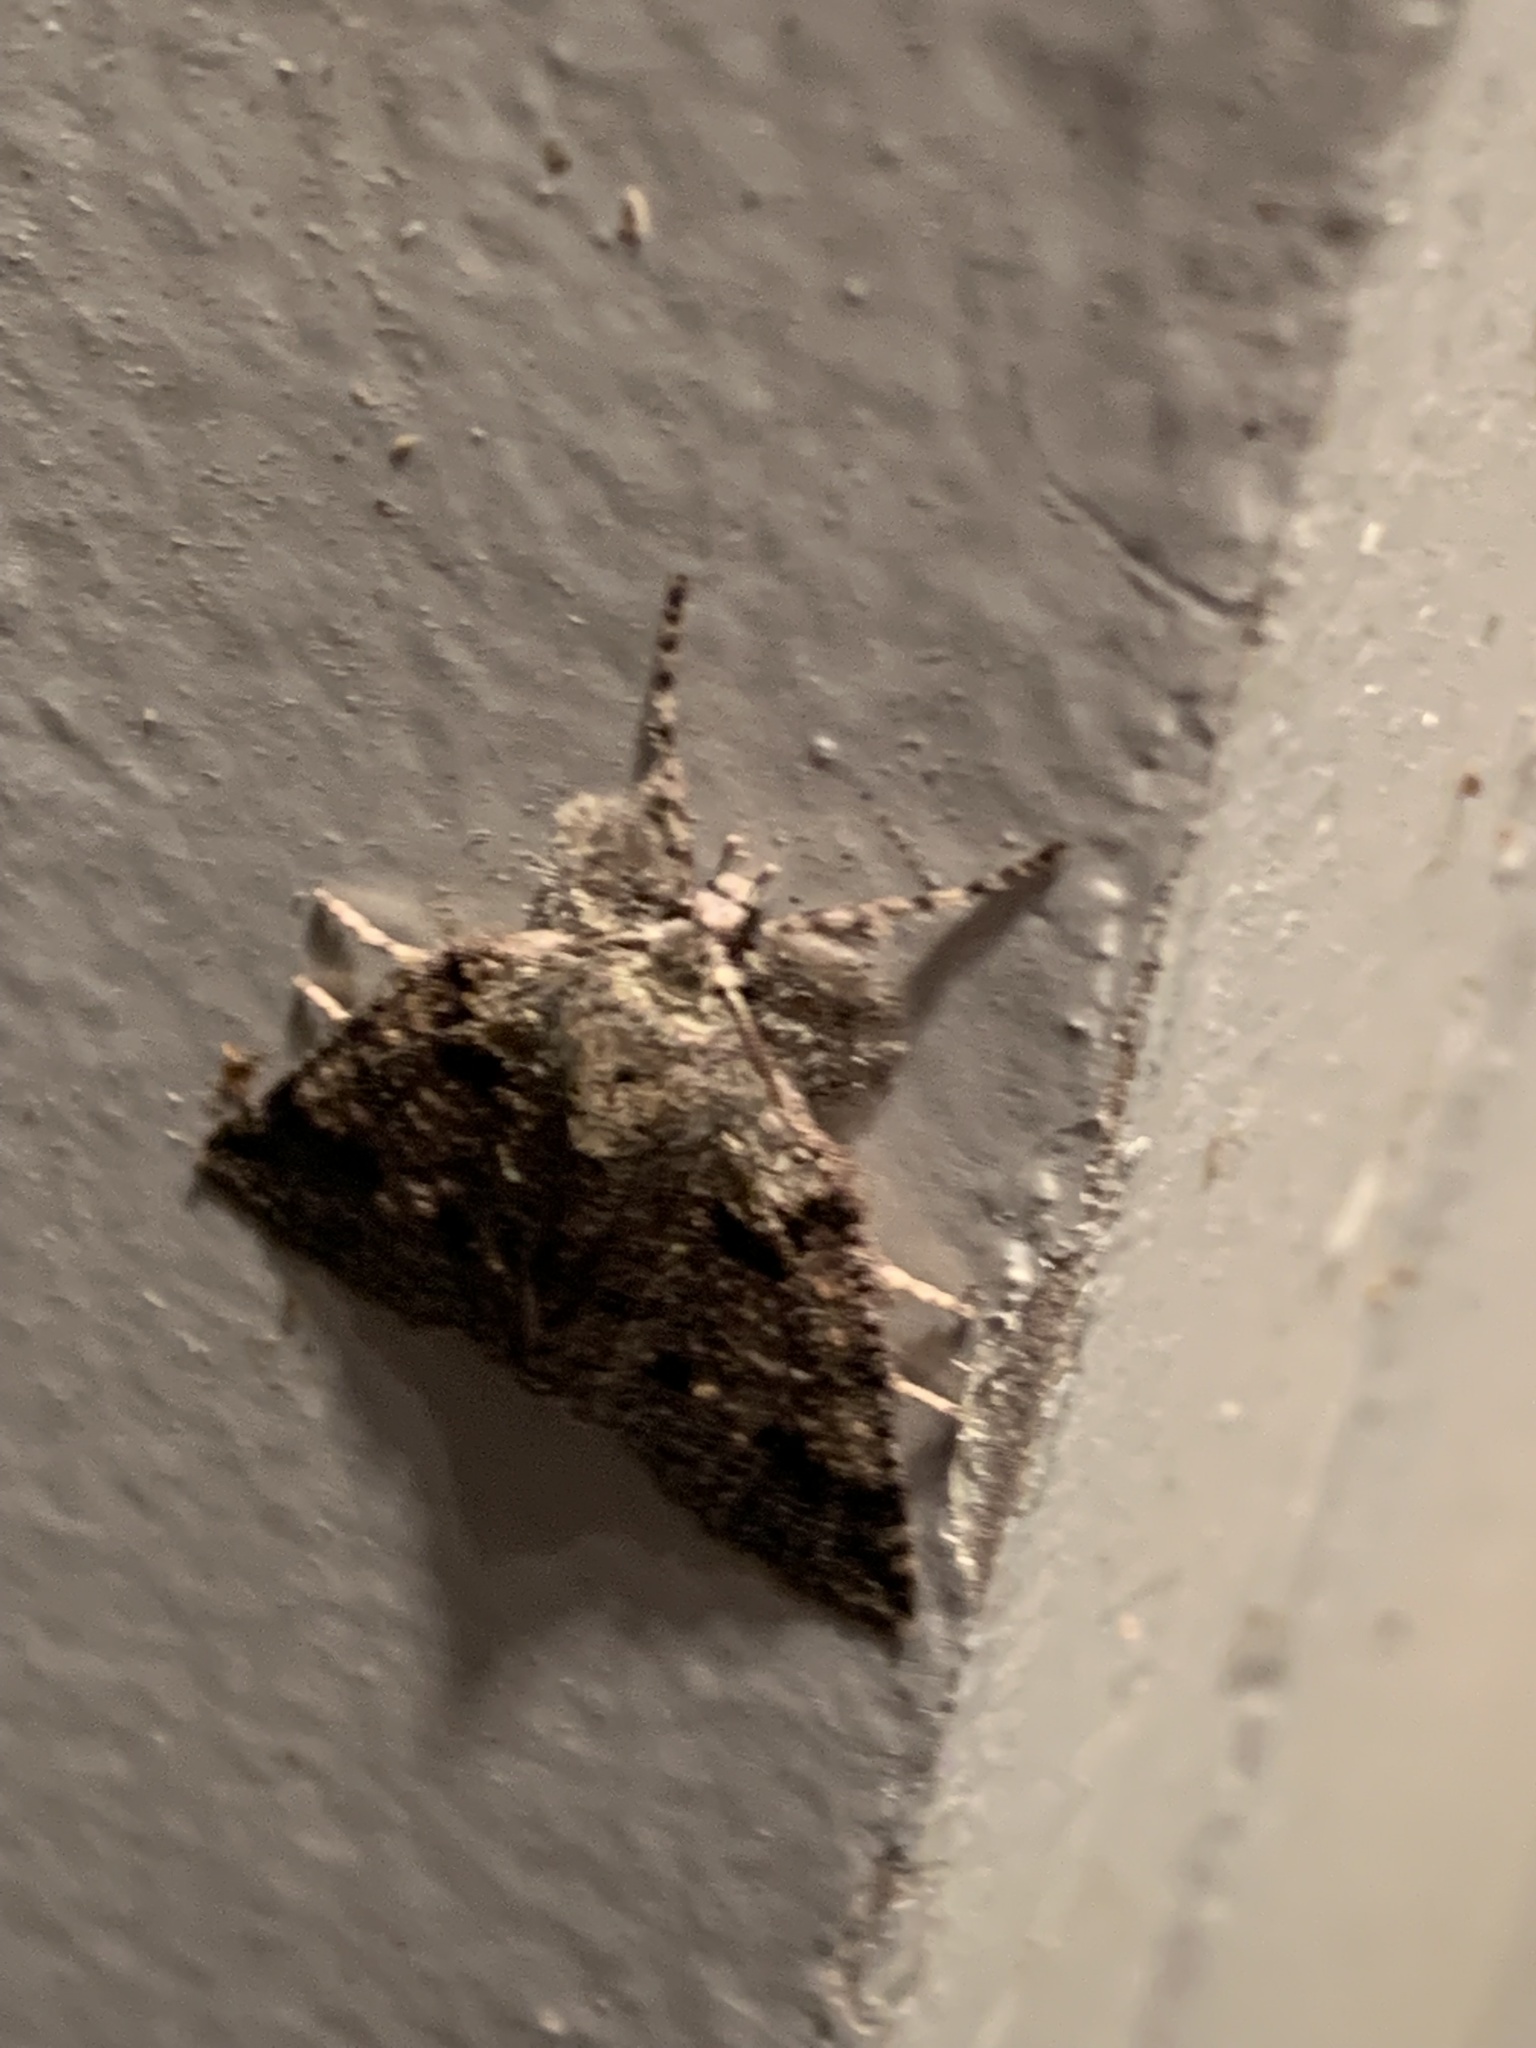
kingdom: Animalia
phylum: Arthropoda
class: Insecta
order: Lepidoptera
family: Geometridae
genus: Declana
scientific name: Declana floccosa
